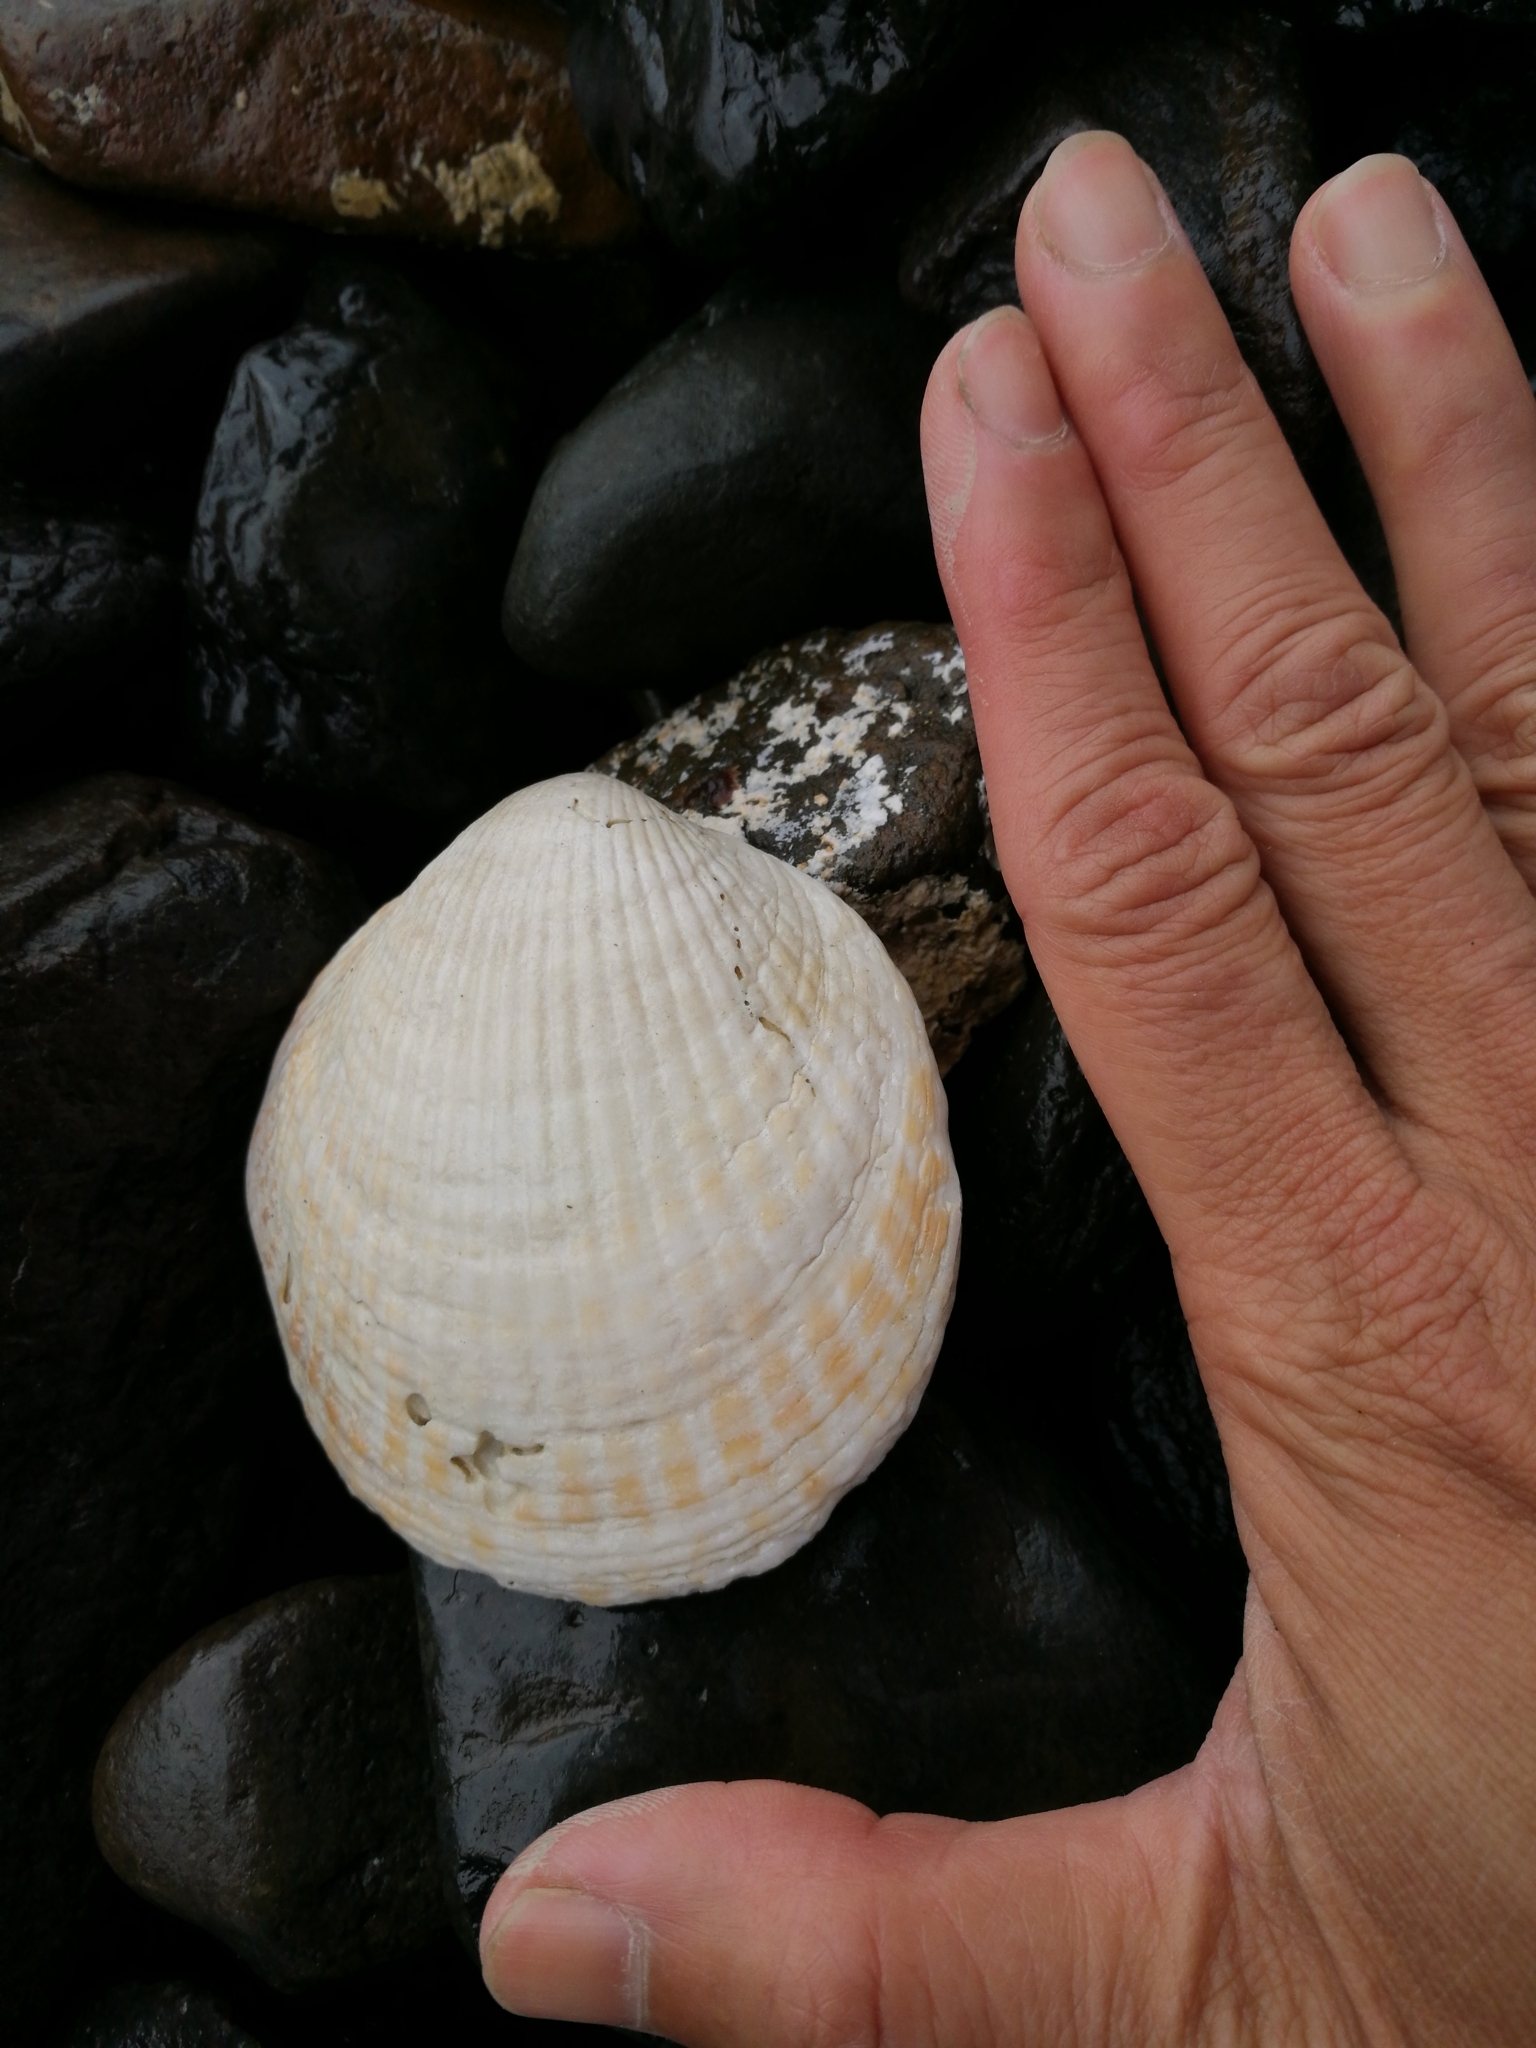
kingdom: Animalia
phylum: Mollusca
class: Bivalvia
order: Arcida
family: Glycymerididae
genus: Tucetona
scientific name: Tucetona laticostata
